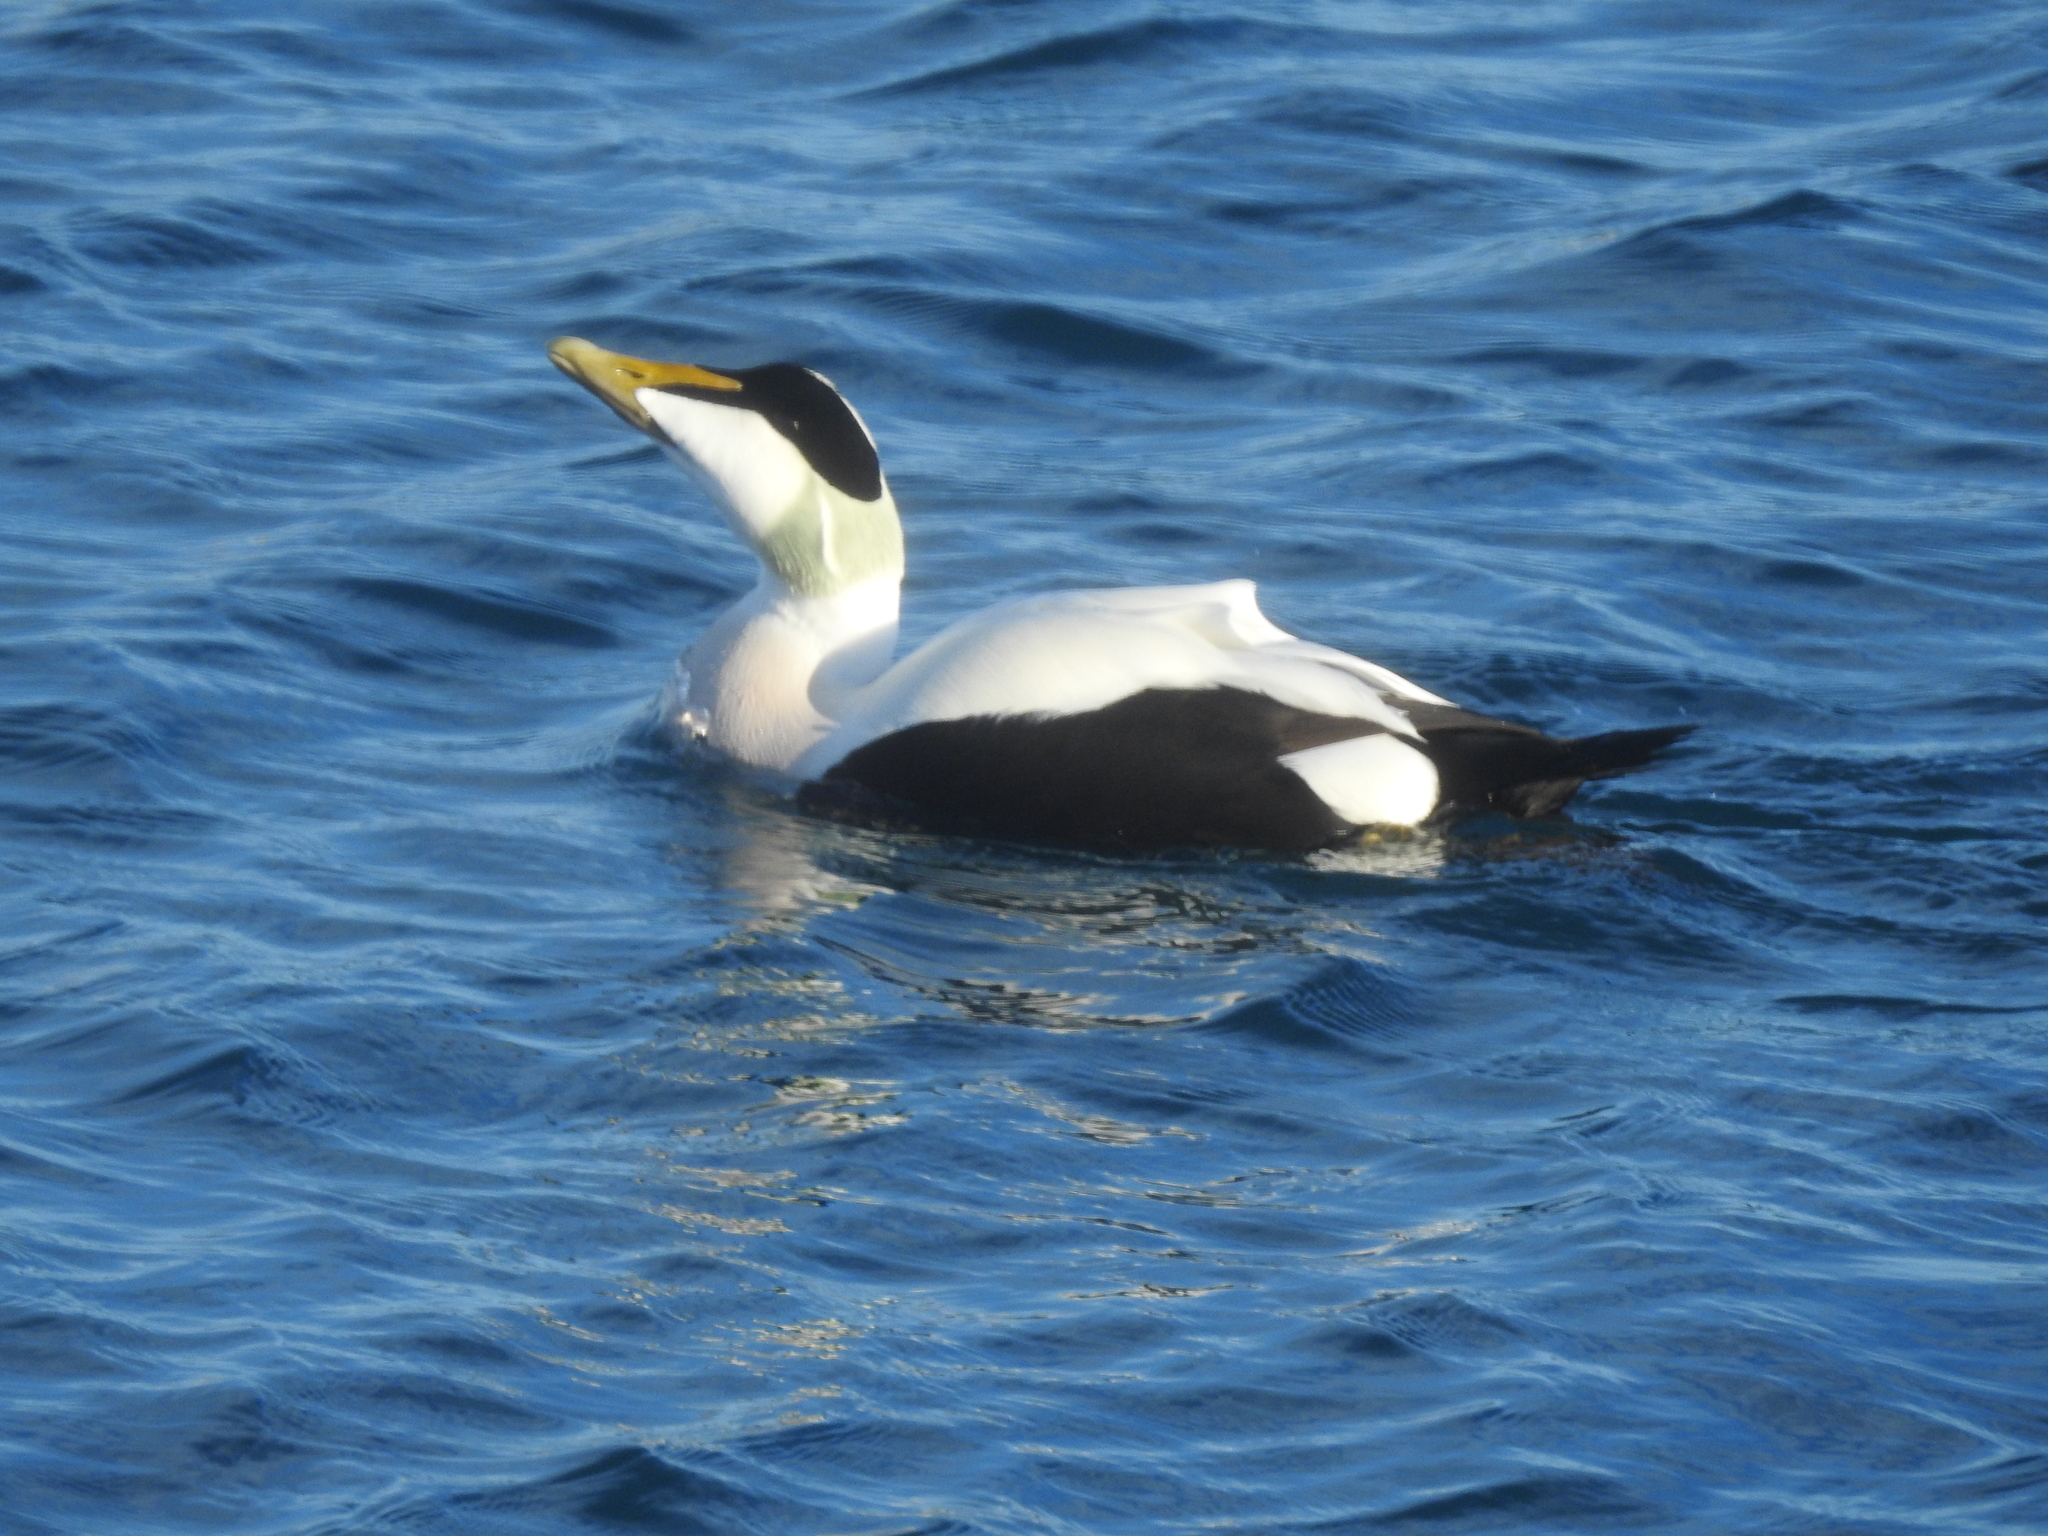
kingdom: Animalia
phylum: Chordata
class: Aves
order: Anseriformes
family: Anatidae
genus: Somateria
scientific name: Somateria mollissima
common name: Common eider
